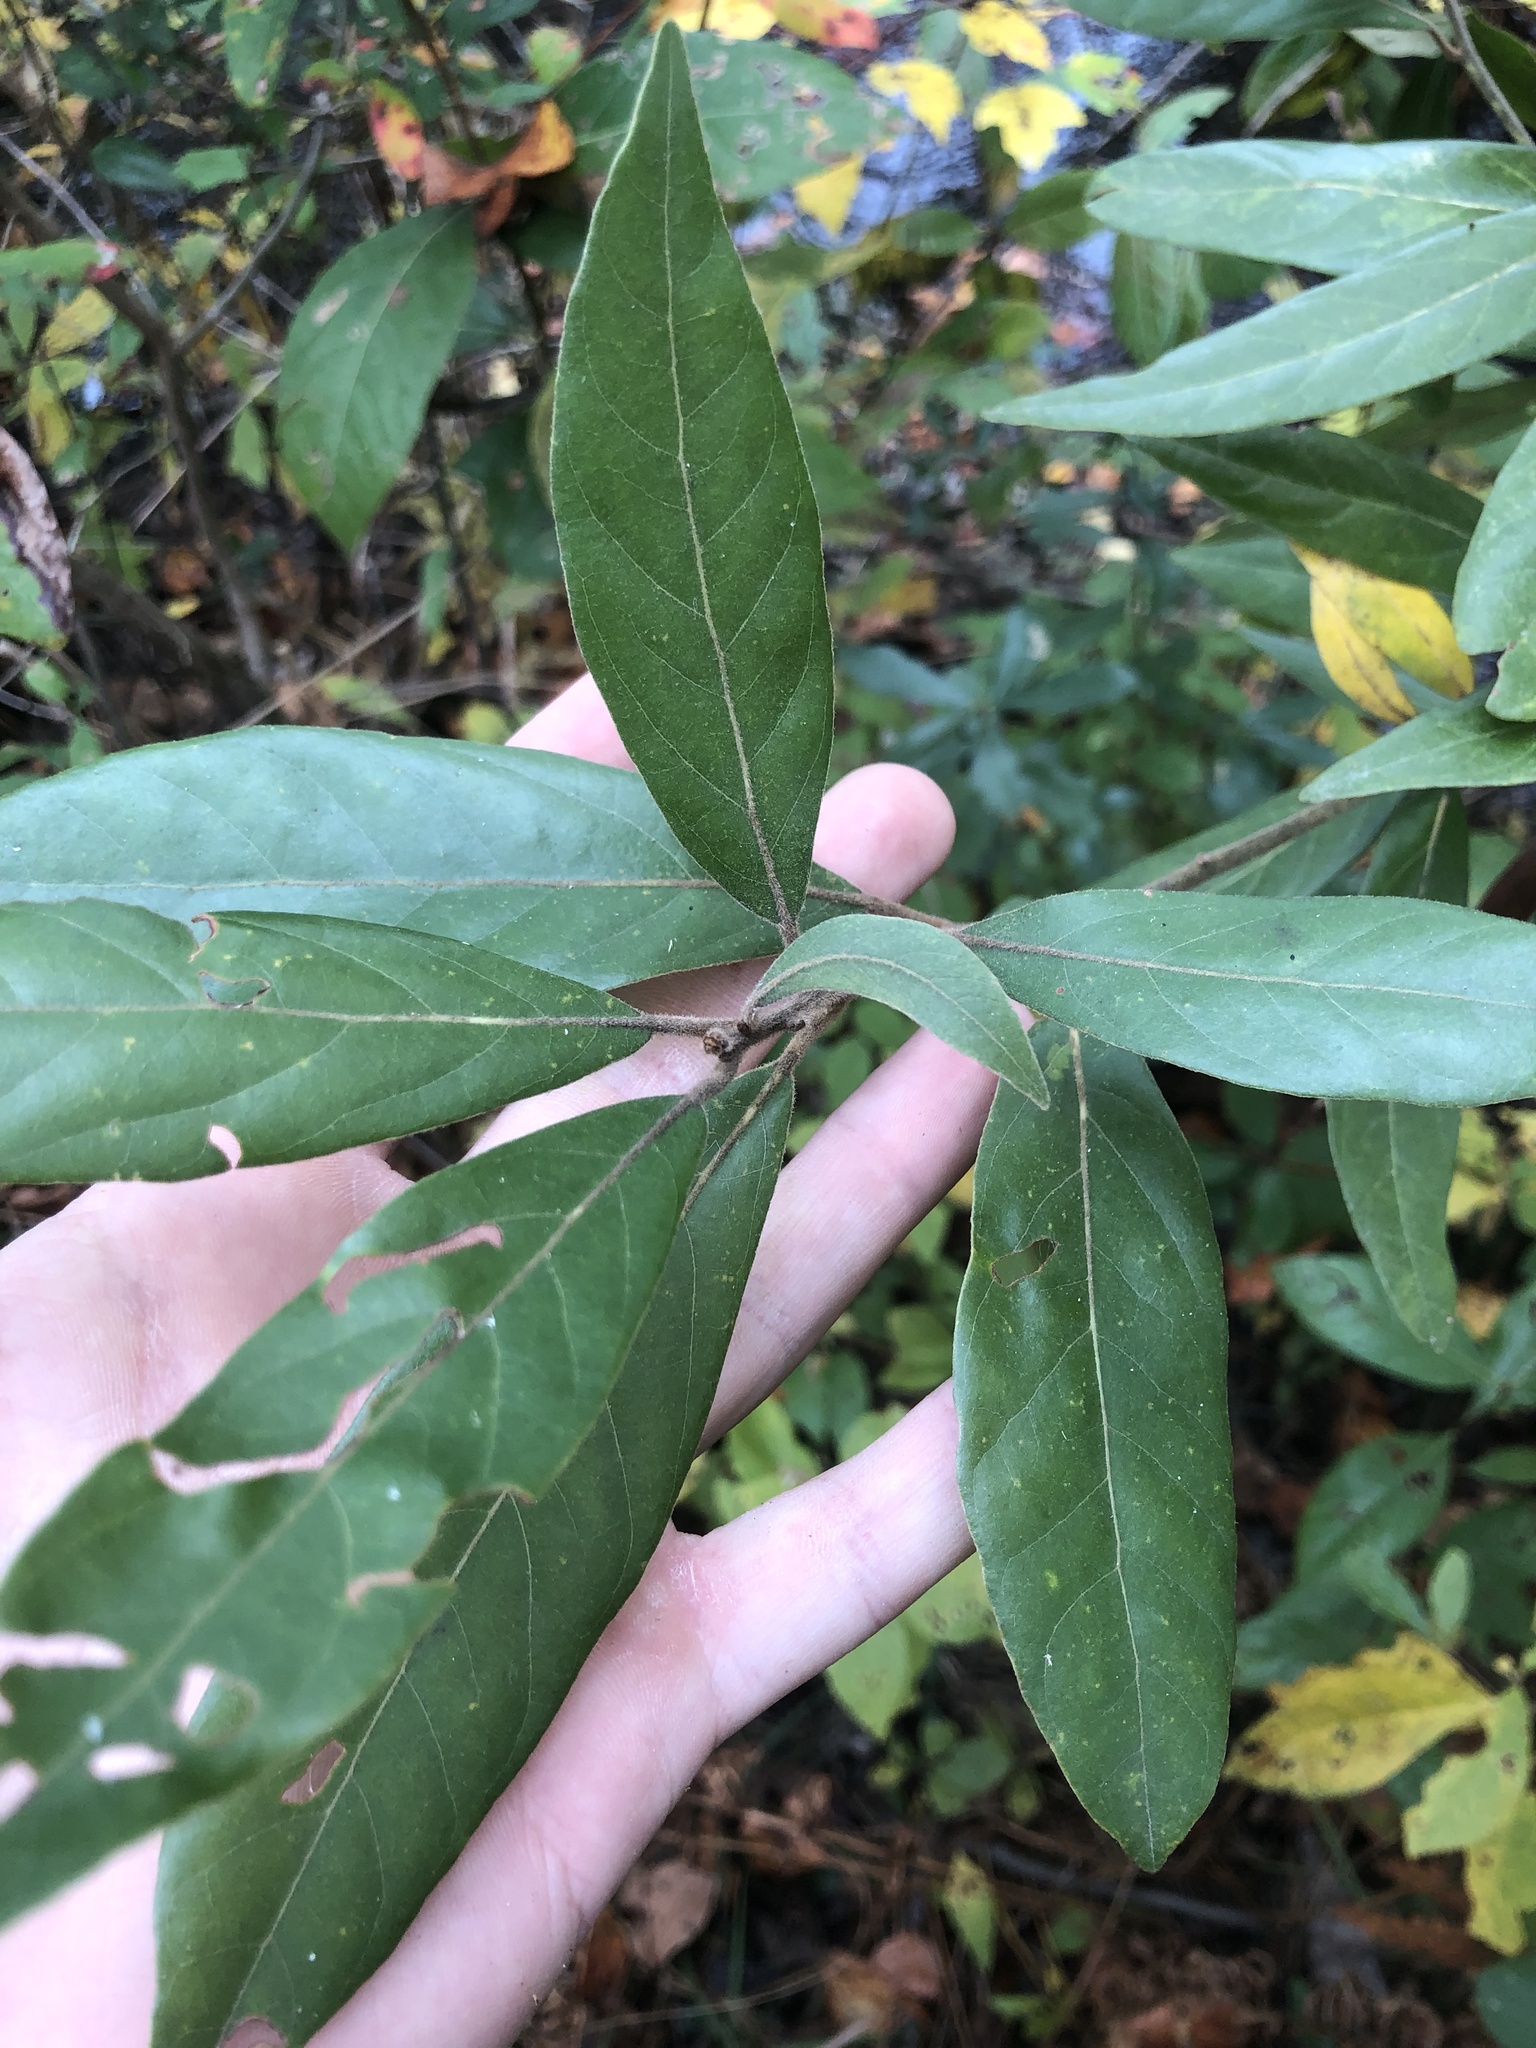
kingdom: Plantae
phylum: Tracheophyta
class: Magnoliopsida
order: Laurales
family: Lauraceae
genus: Persea
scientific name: Persea palustris
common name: Swampbay
